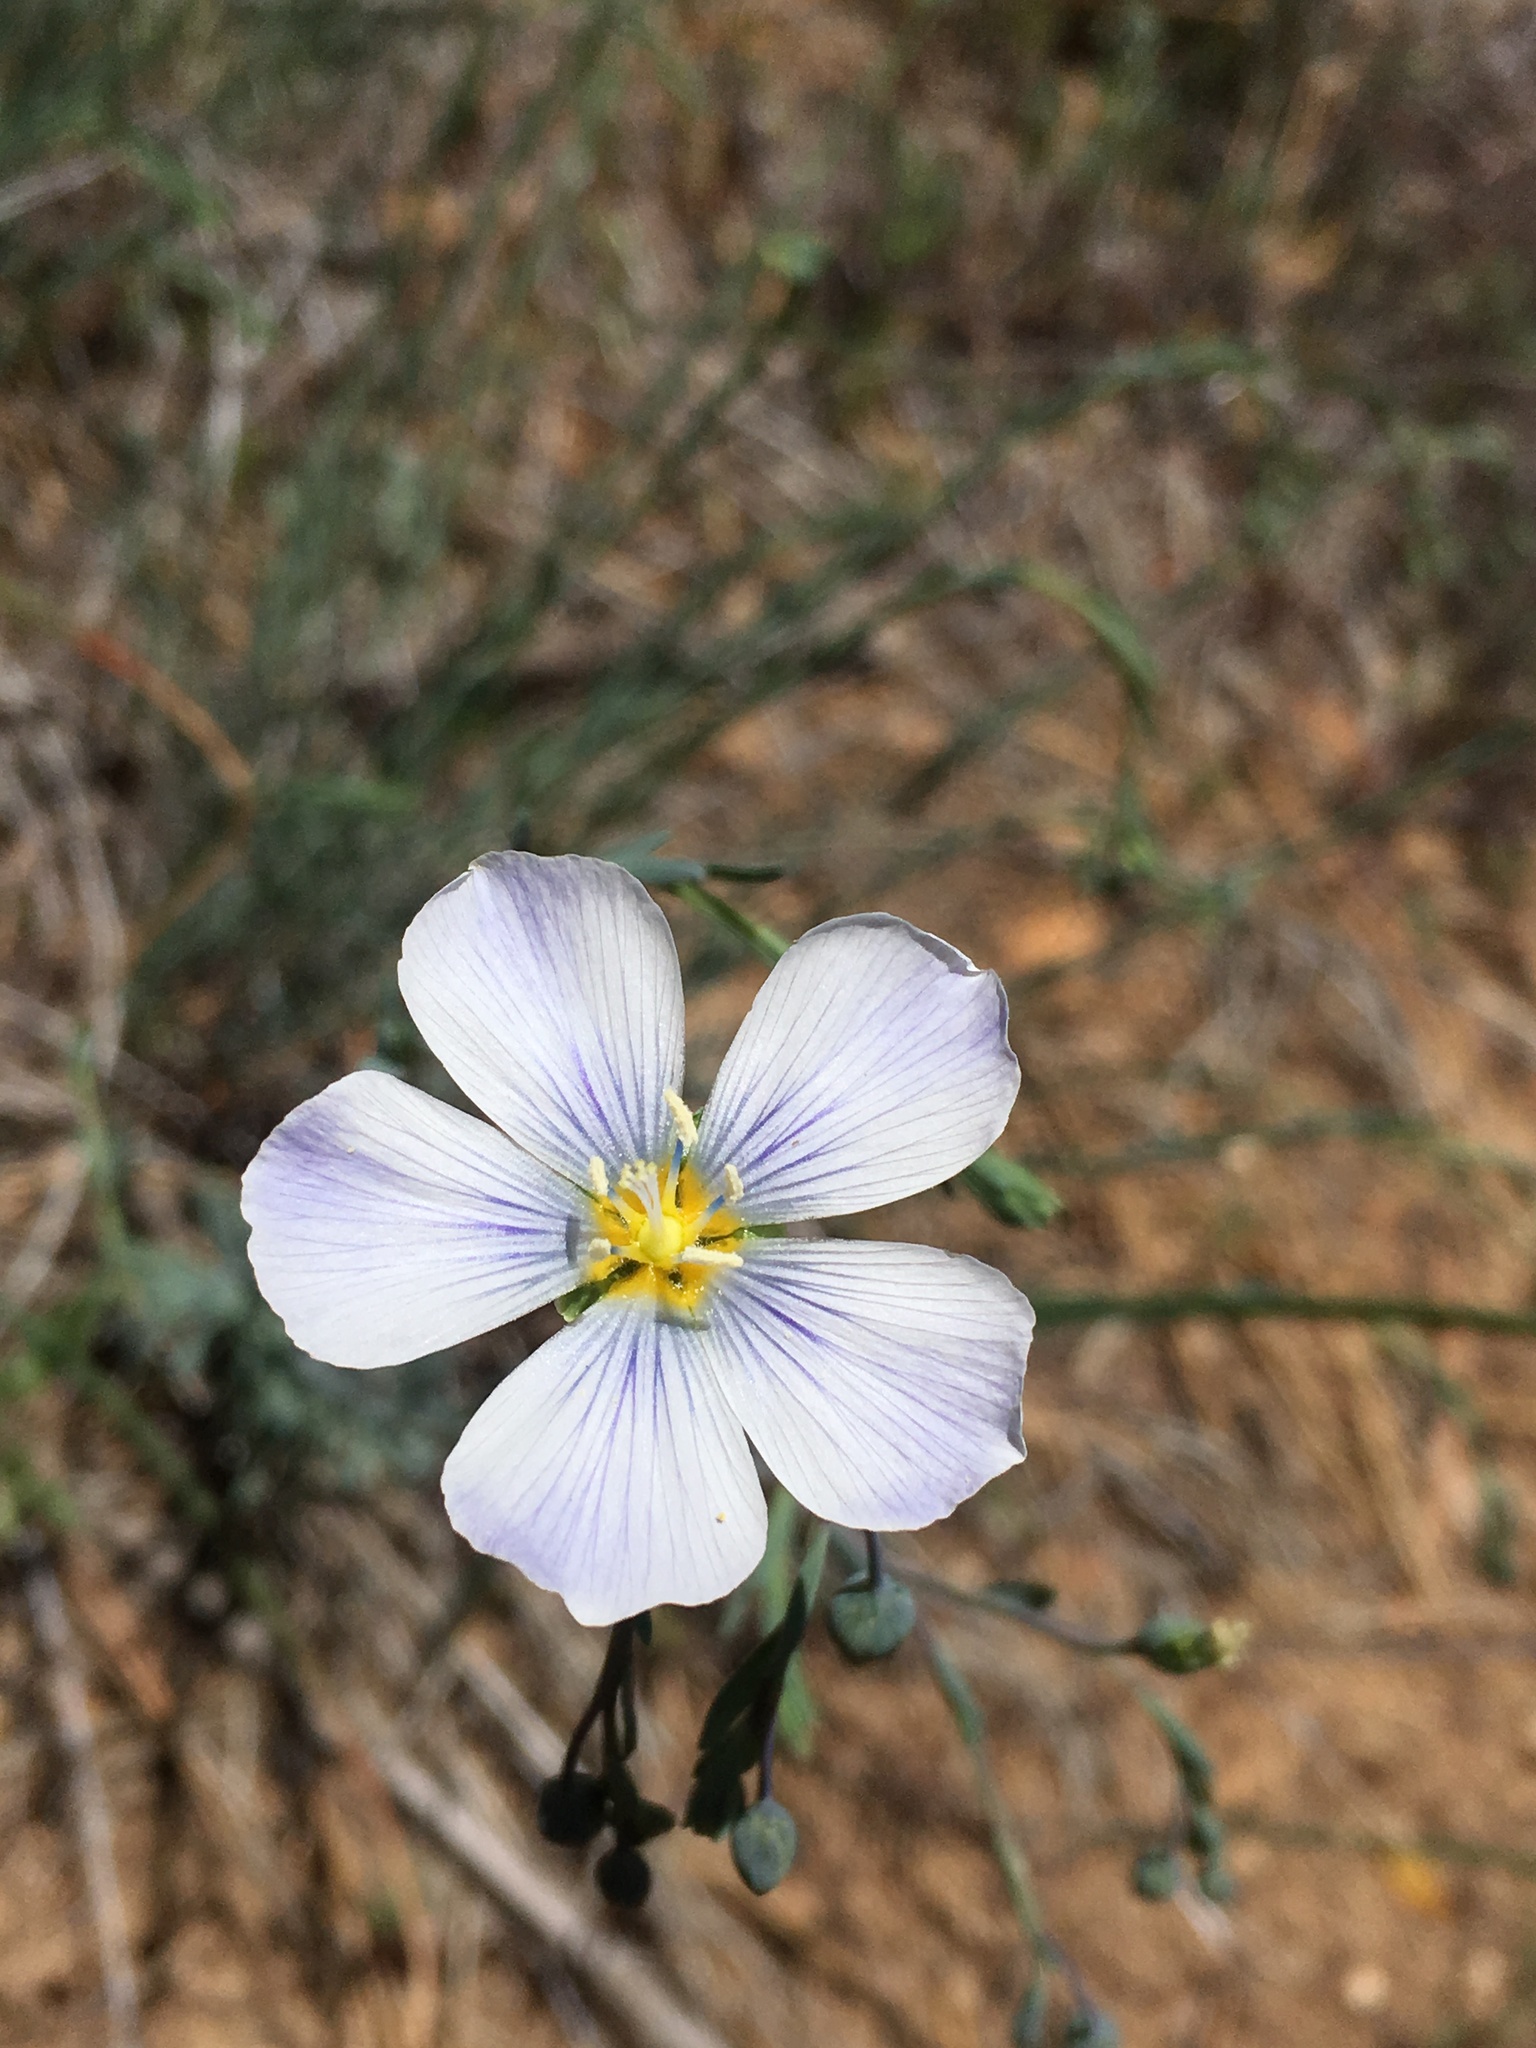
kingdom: Plantae
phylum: Tracheophyta
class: Magnoliopsida
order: Malpighiales
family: Linaceae
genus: Linum
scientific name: Linum lewisii
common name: Prairie flax
